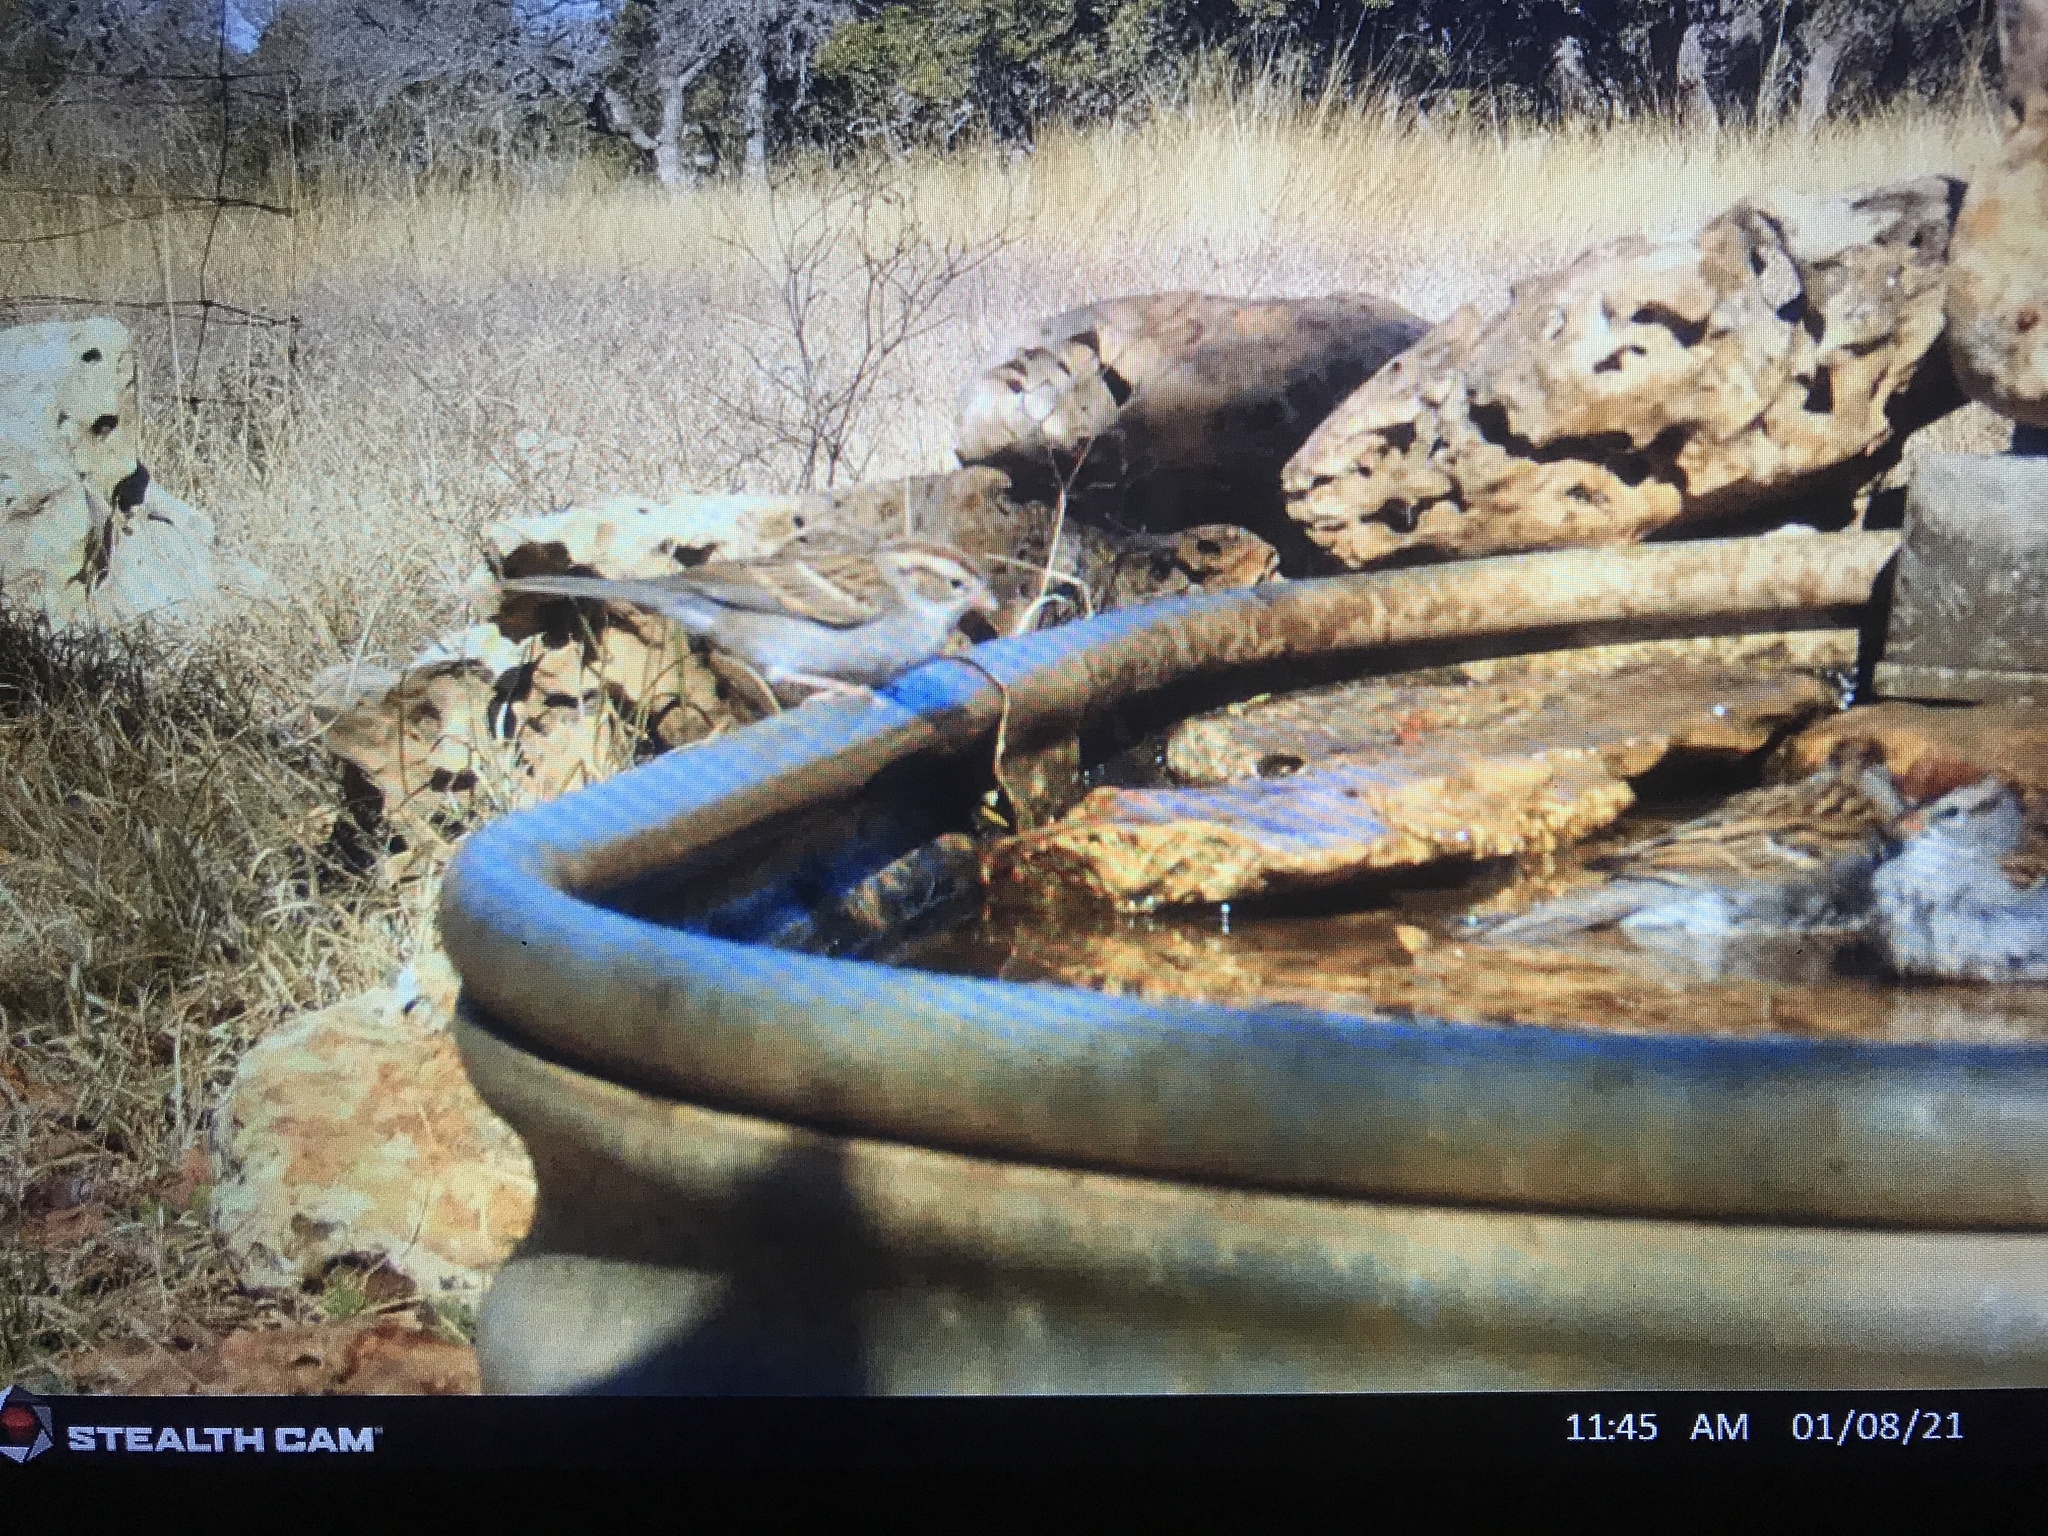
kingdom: Animalia
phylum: Chordata
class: Aves
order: Passeriformes
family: Passerellidae
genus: Spizella
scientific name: Spizella passerina
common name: Chipping sparrow
